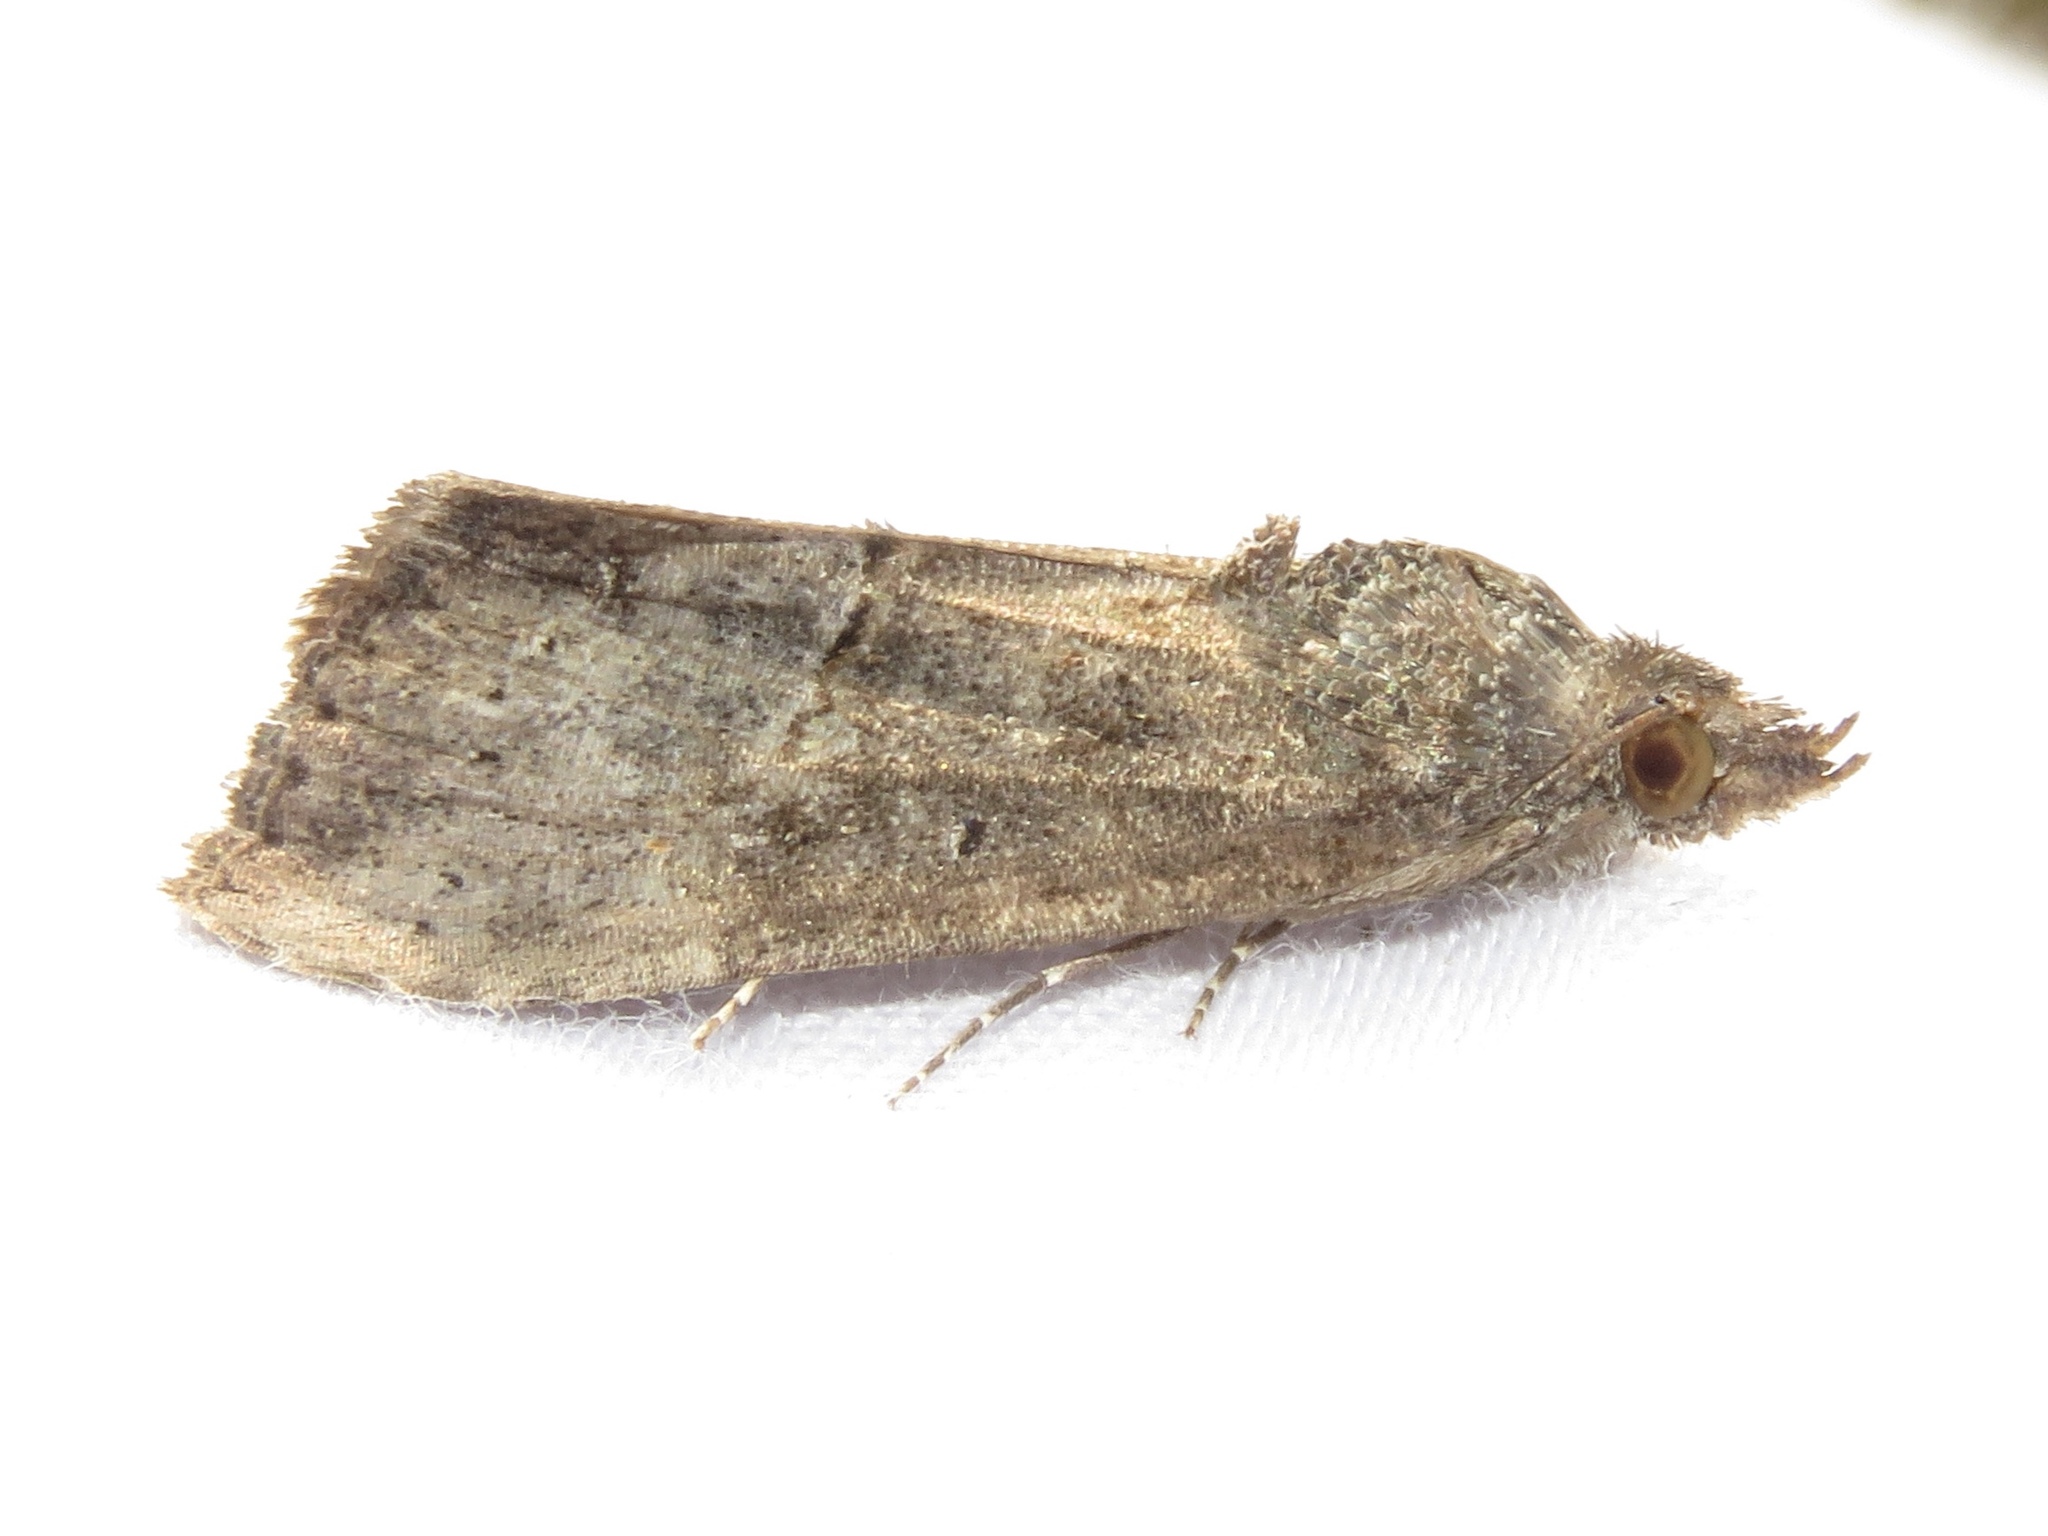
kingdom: Animalia
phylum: Arthropoda
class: Insecta
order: Lepidoptera
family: Erebidae
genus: Hypena
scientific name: Hypena scabra
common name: Green cloverworm
